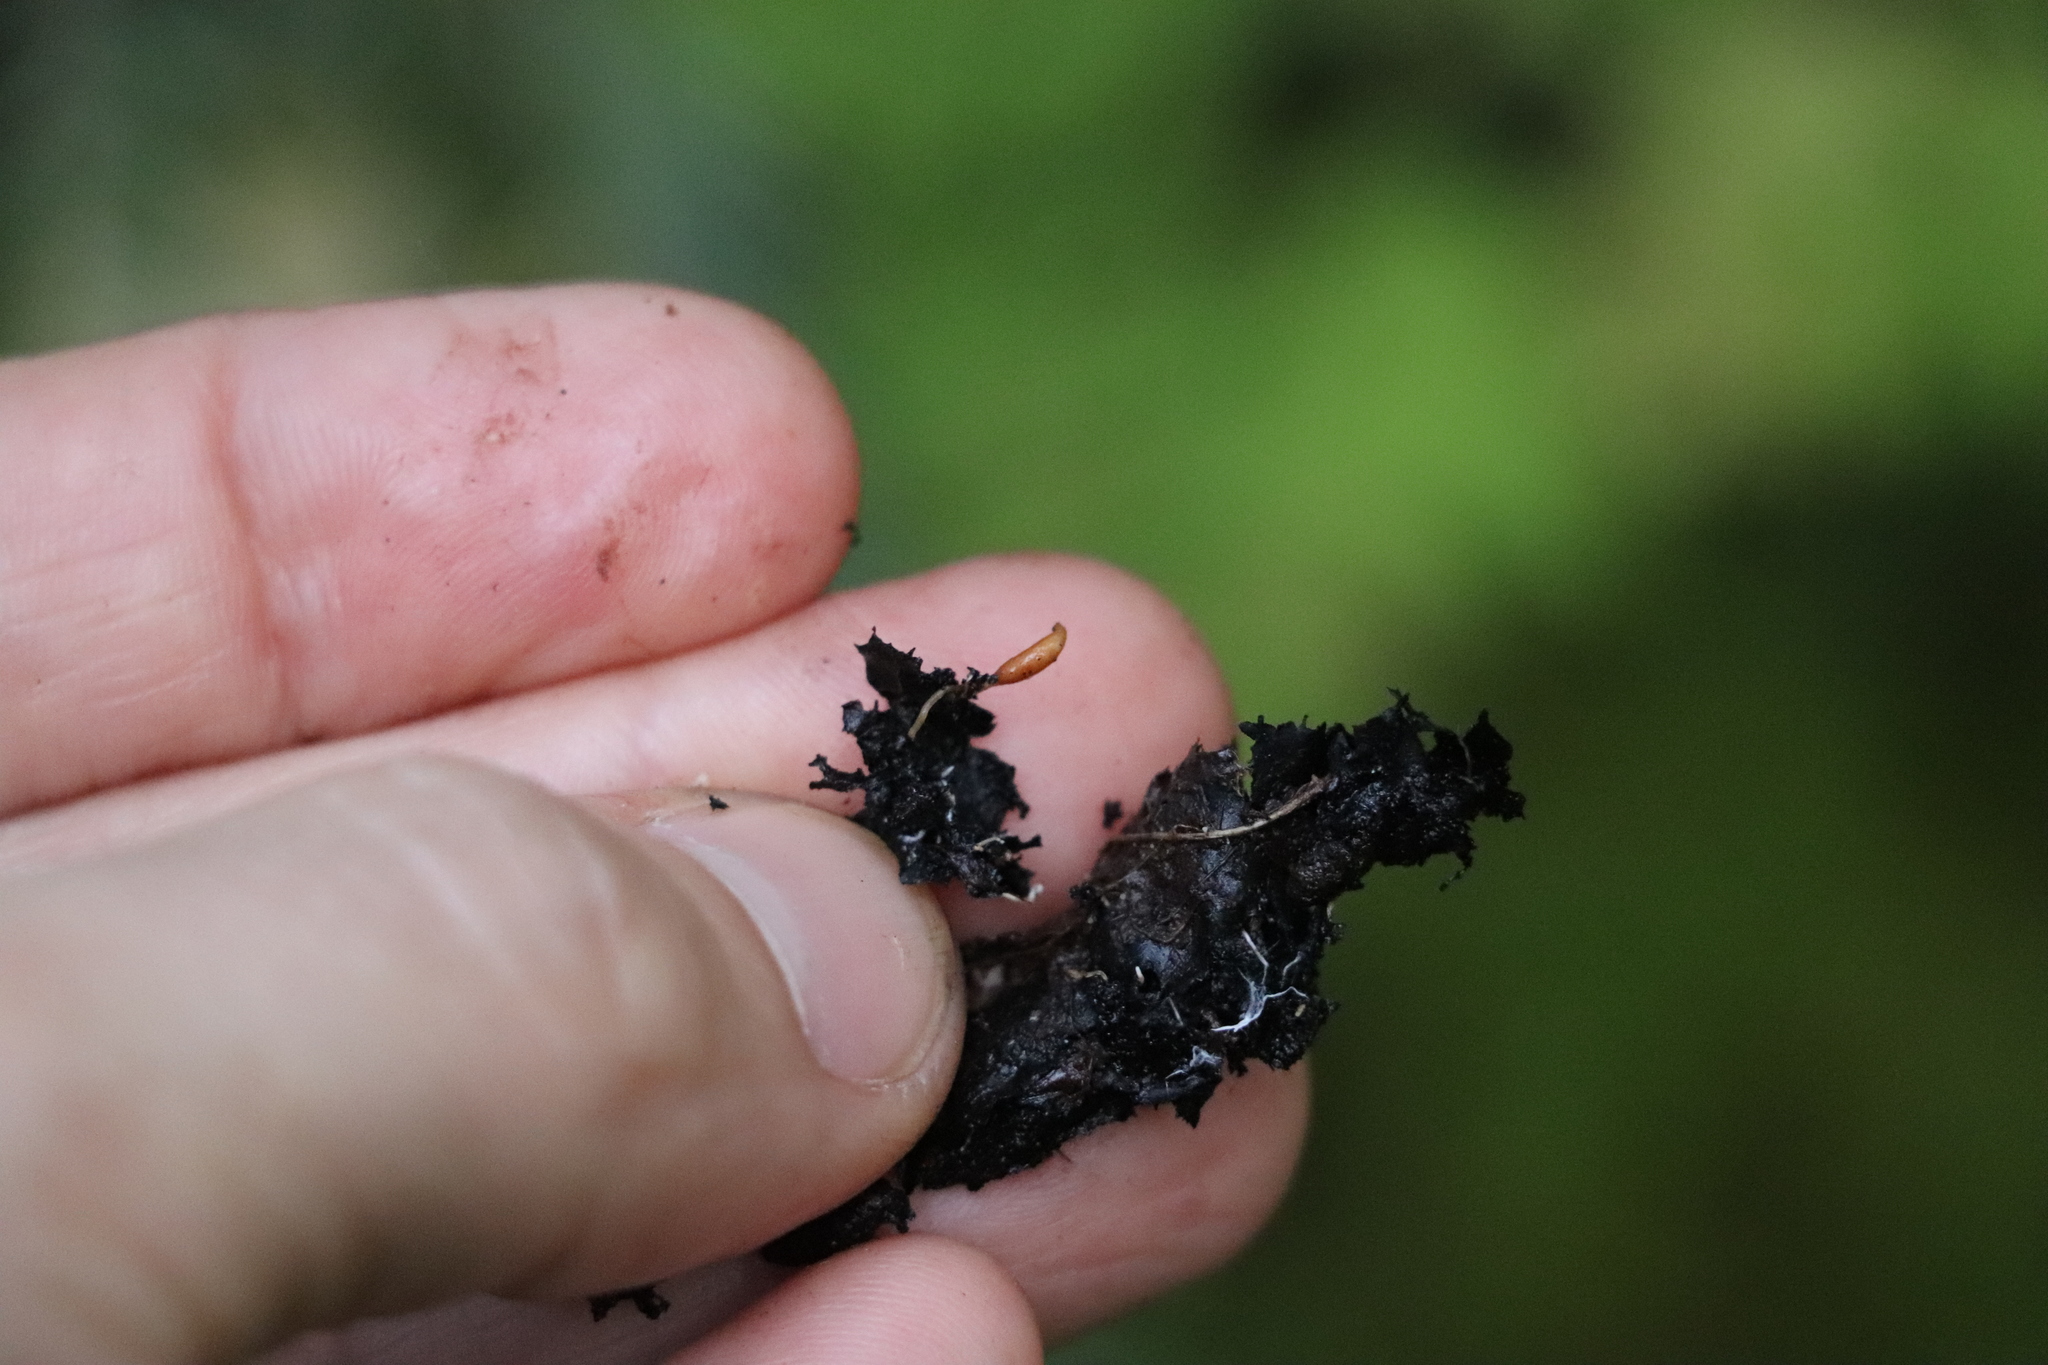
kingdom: Fungi
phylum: Basidiomycota
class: Agaricomycetes
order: Agaricales
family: Tricholomataceae
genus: Collybia
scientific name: Collybia tuberosa
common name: Lentil shanklet
